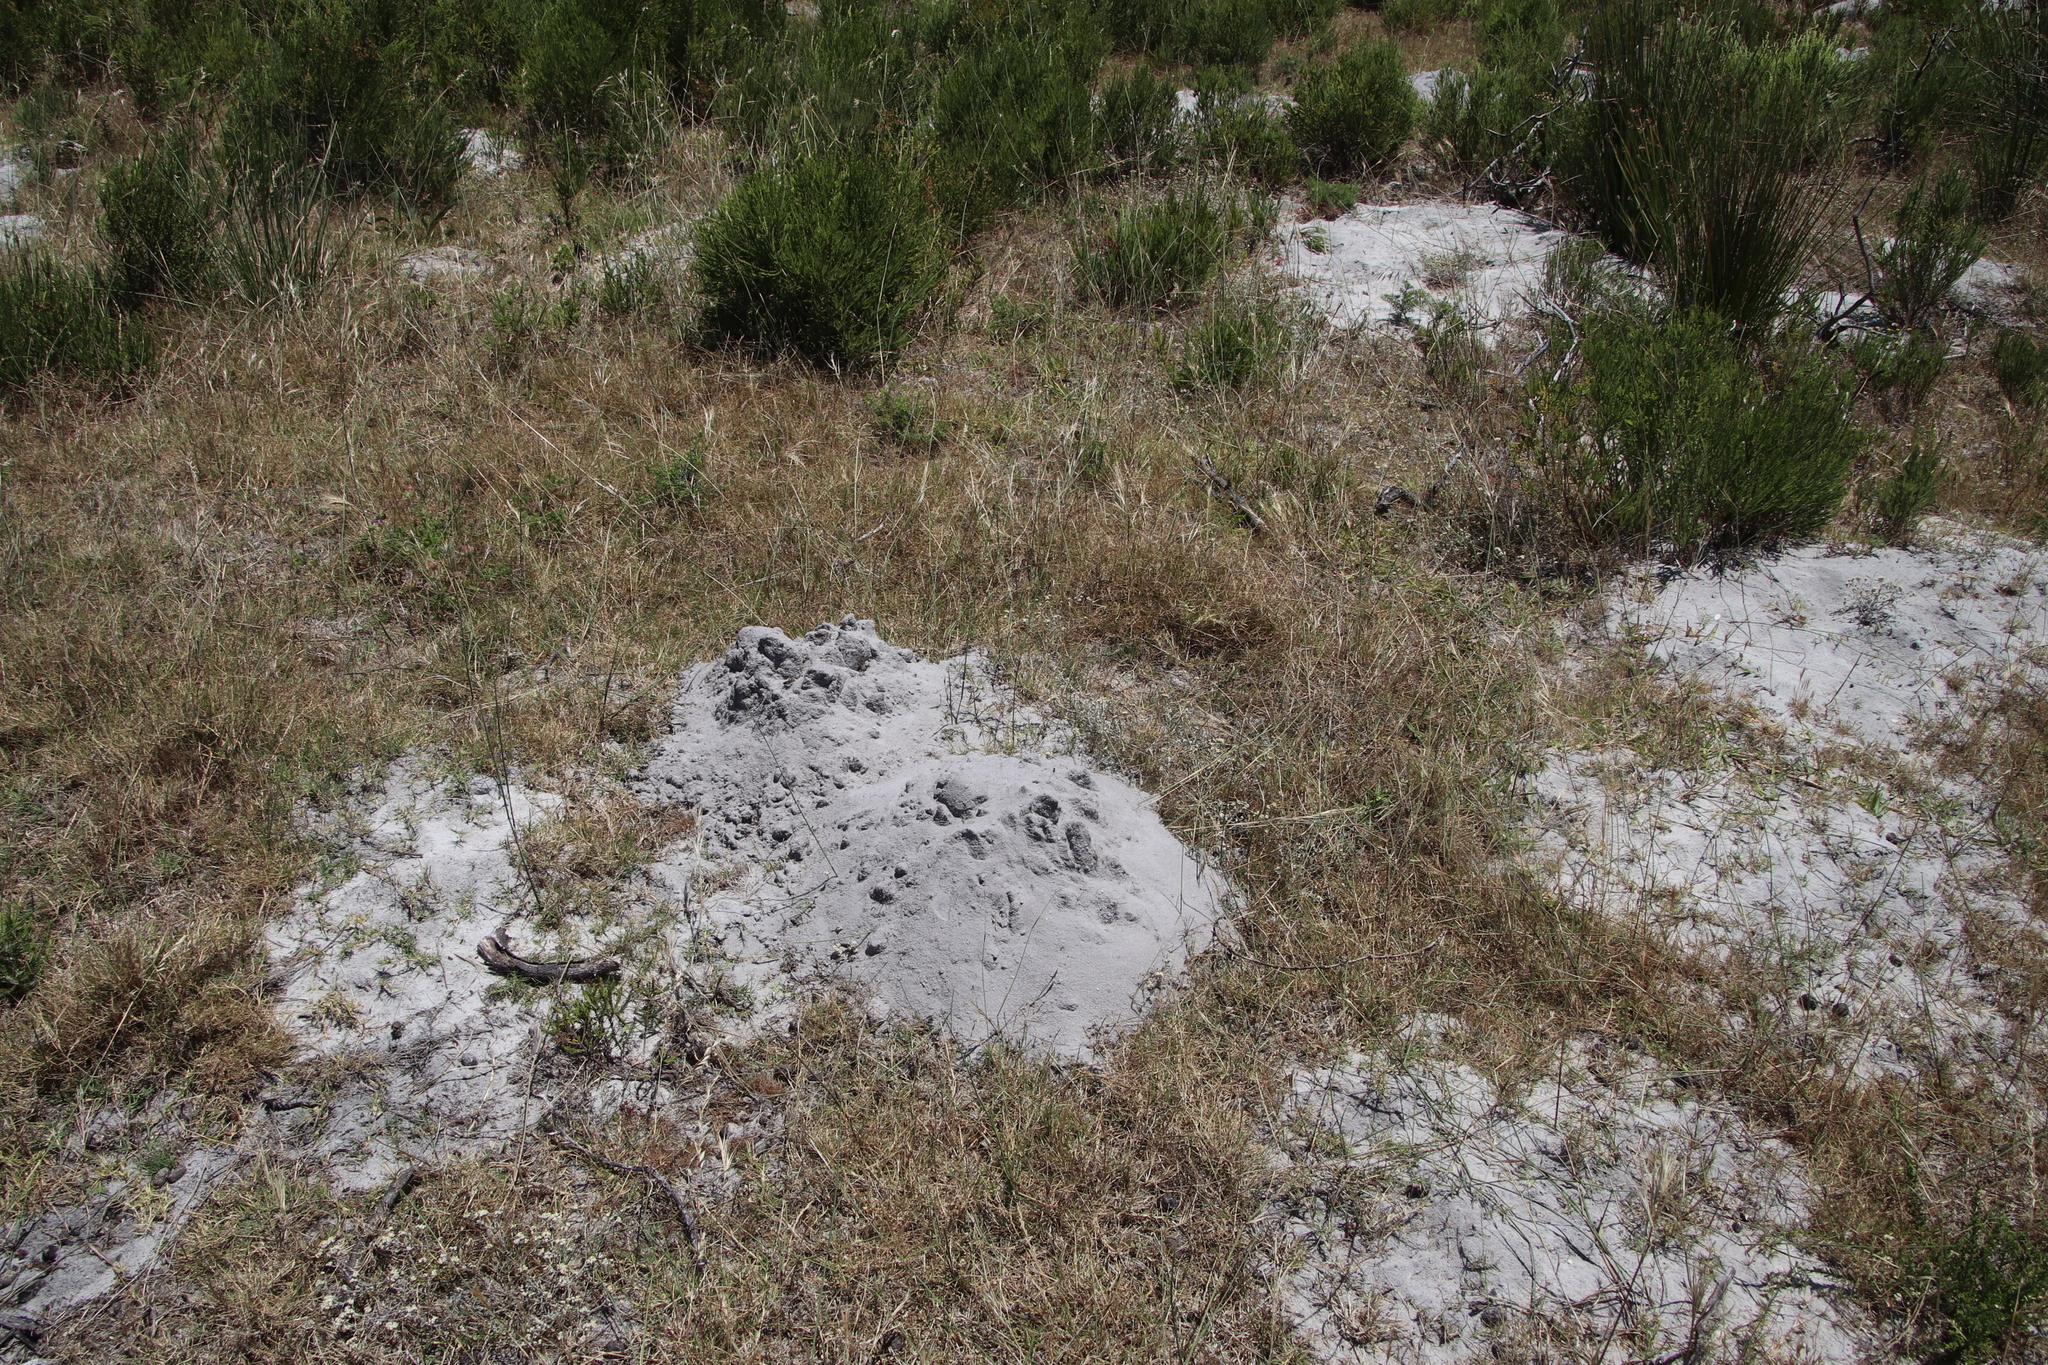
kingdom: Animalia
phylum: Chordata
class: Mammalia
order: Rodentia
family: Bathyergidae
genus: Bathyergus
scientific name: Bathyergus suillus
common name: Cape dune mole rat
